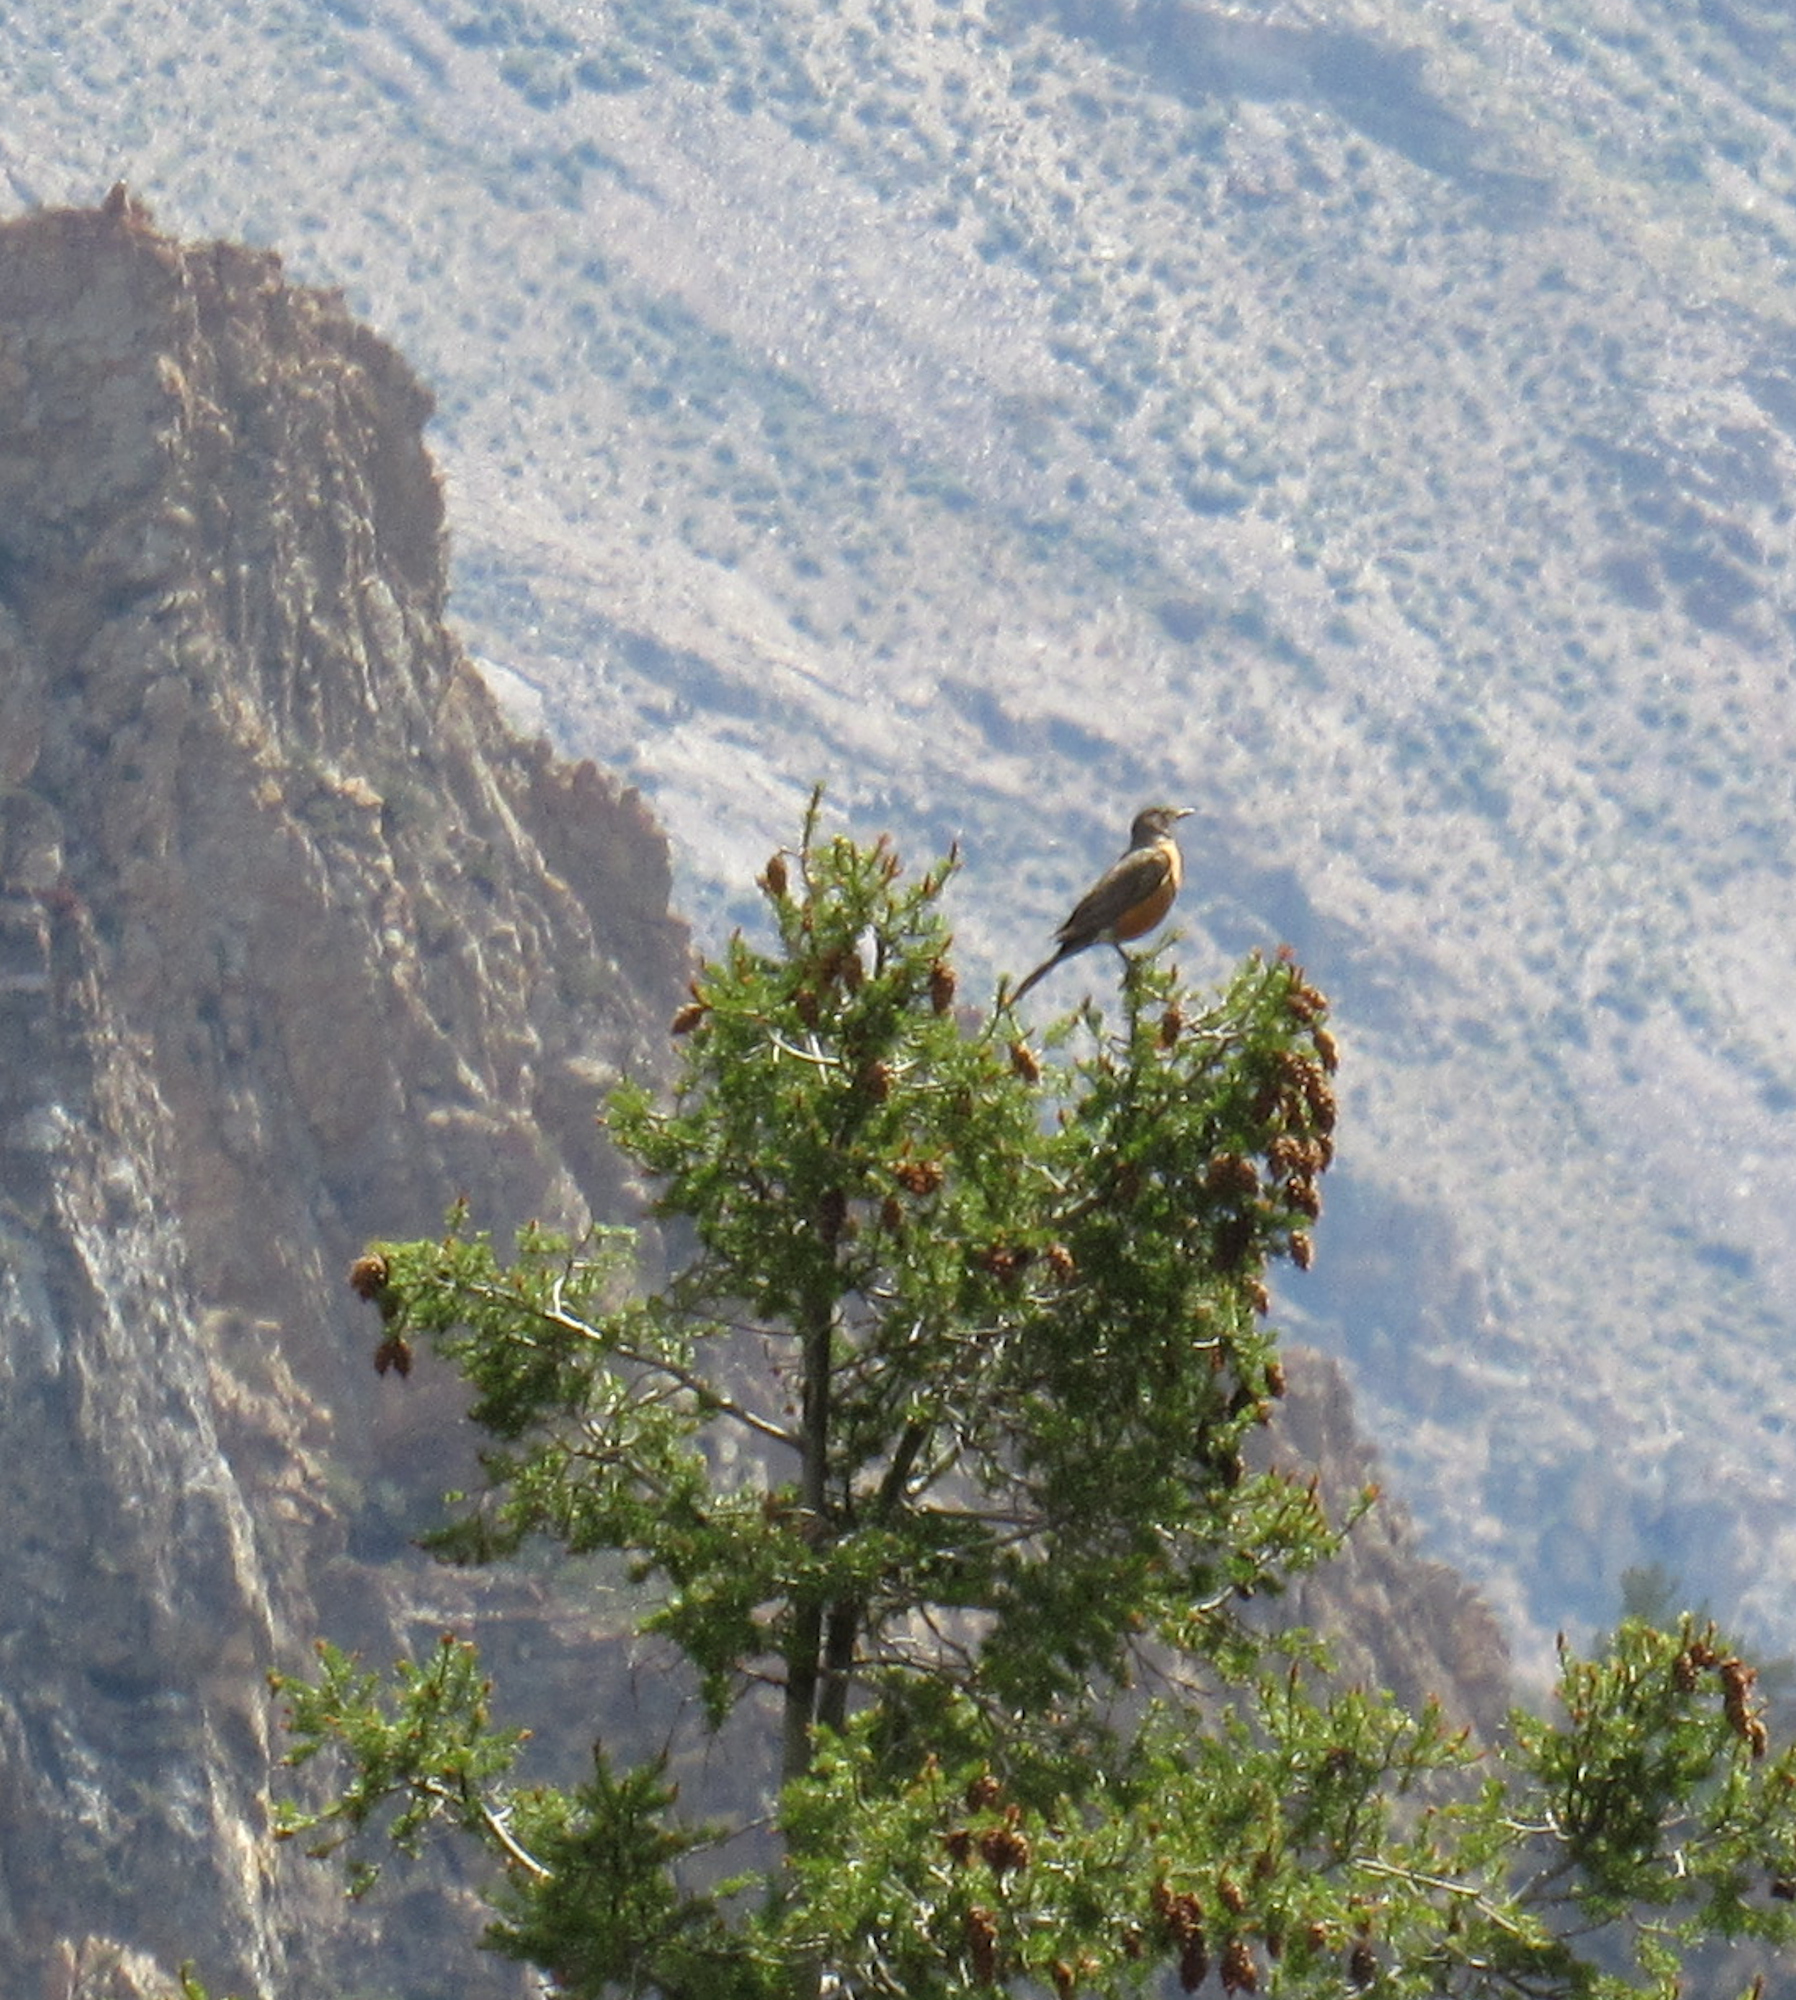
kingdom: Animalia
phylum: Chordata
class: Aves
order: Passeriformes
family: Turdidae
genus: Turdus
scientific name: Turdus migratorius
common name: American robin
